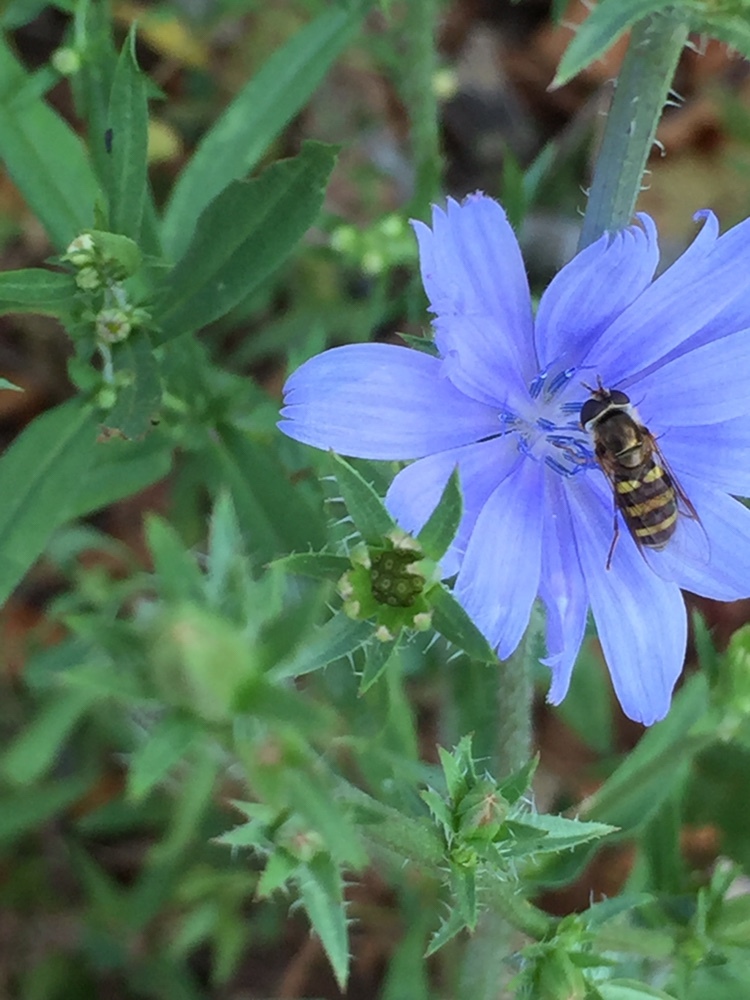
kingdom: Animalia
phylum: Arthropoda
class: Insecta
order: Diptera
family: Syrphidae
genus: Eupeodes
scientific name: Eupeodes
